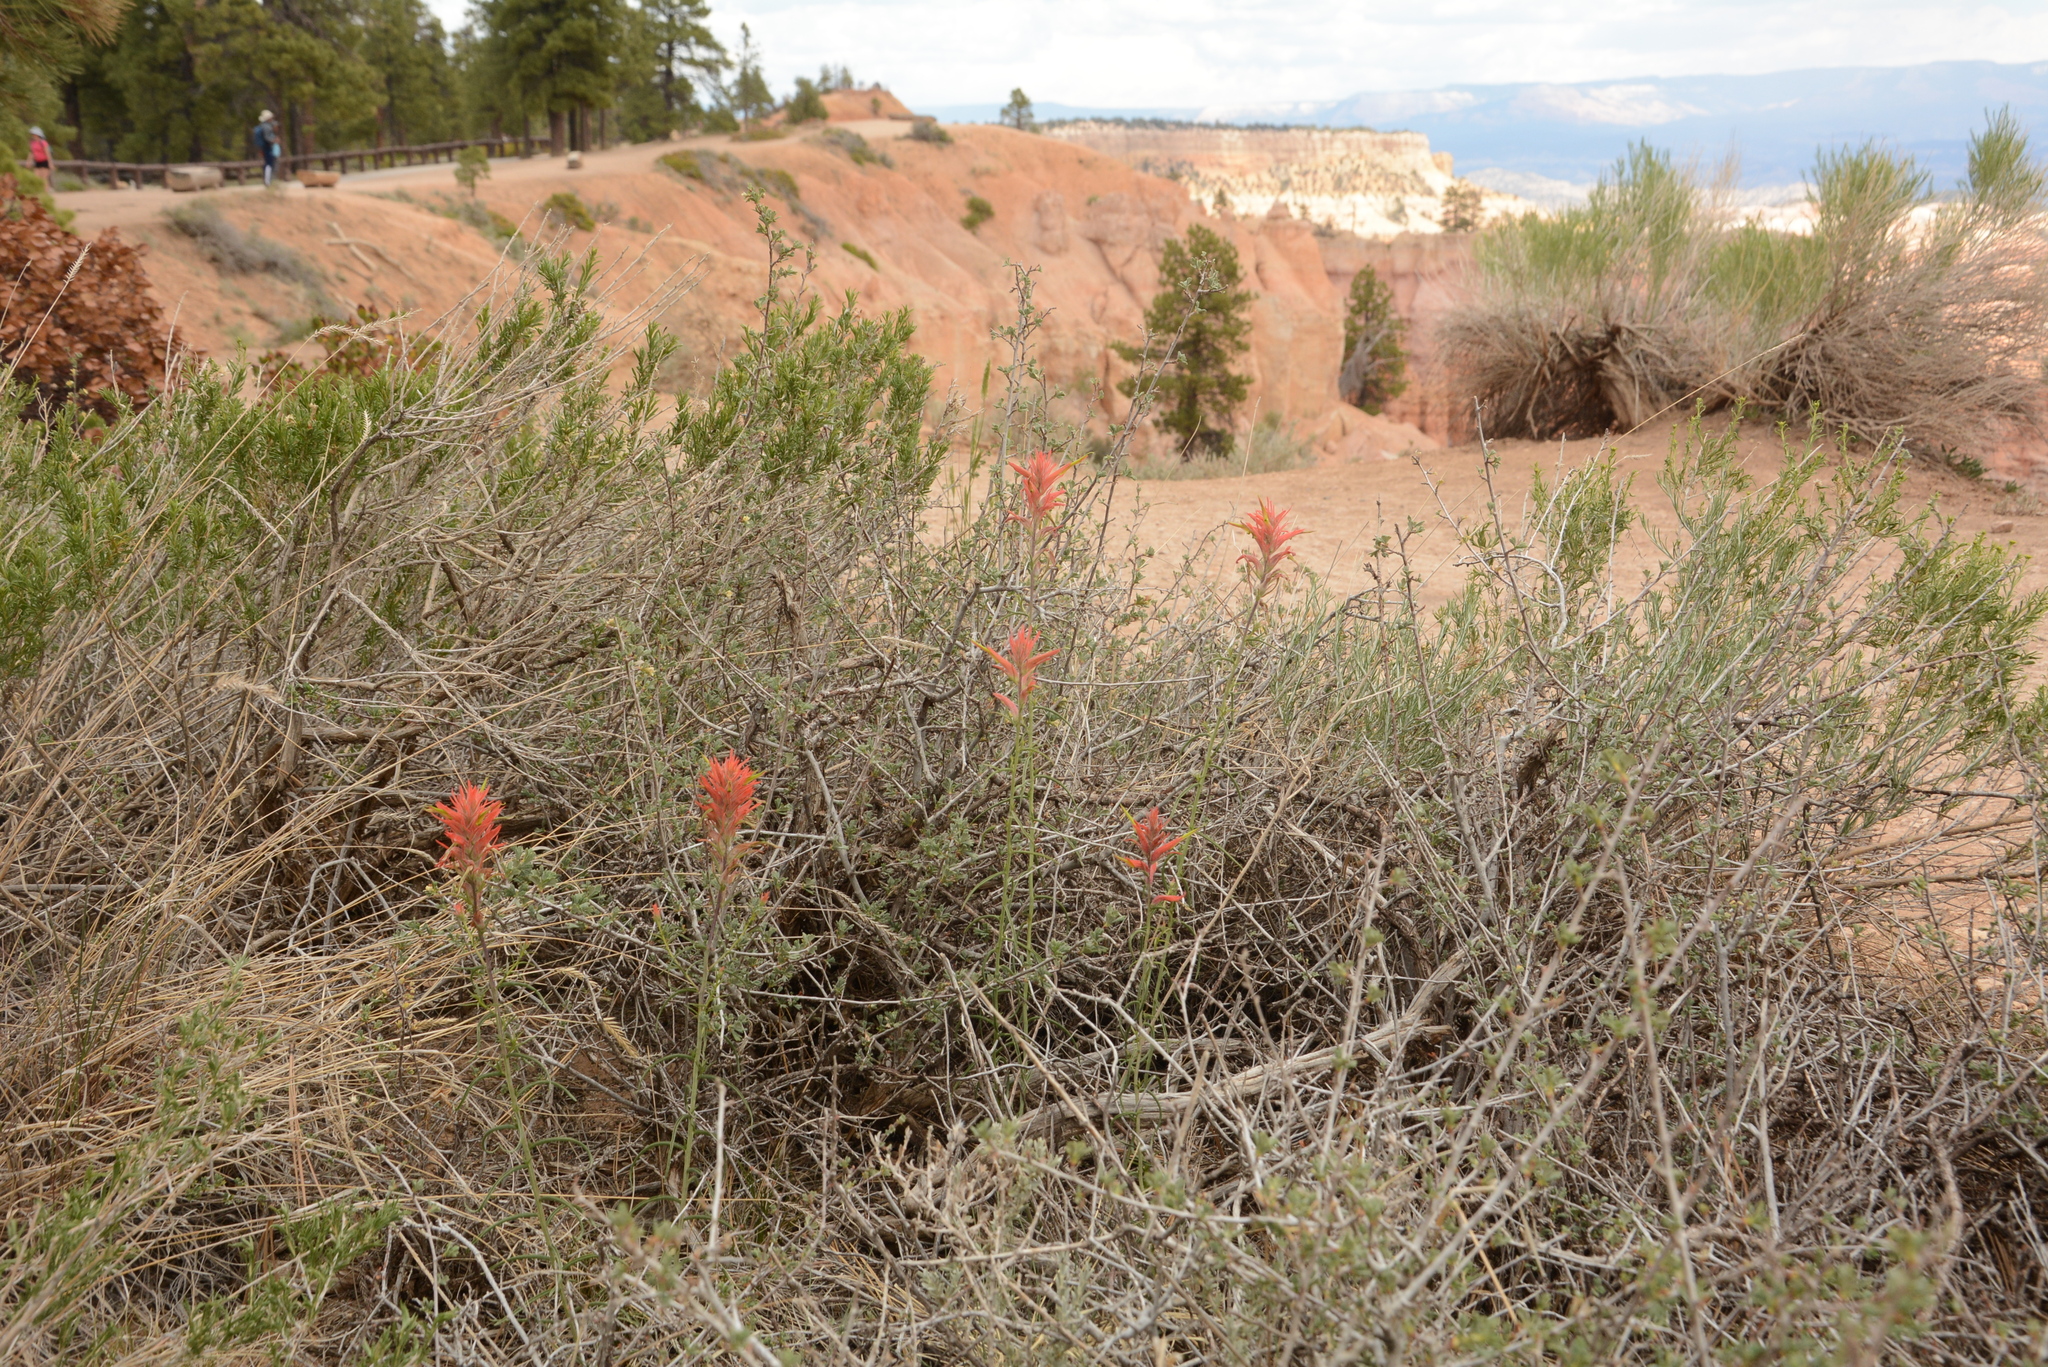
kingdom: Plantae
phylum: Tracheophyta
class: Magnoliopsida
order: Lamiales
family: Orobanchaceae
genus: Castilleja
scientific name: Castilleja linariifolia
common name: Wyoming paintbrush
